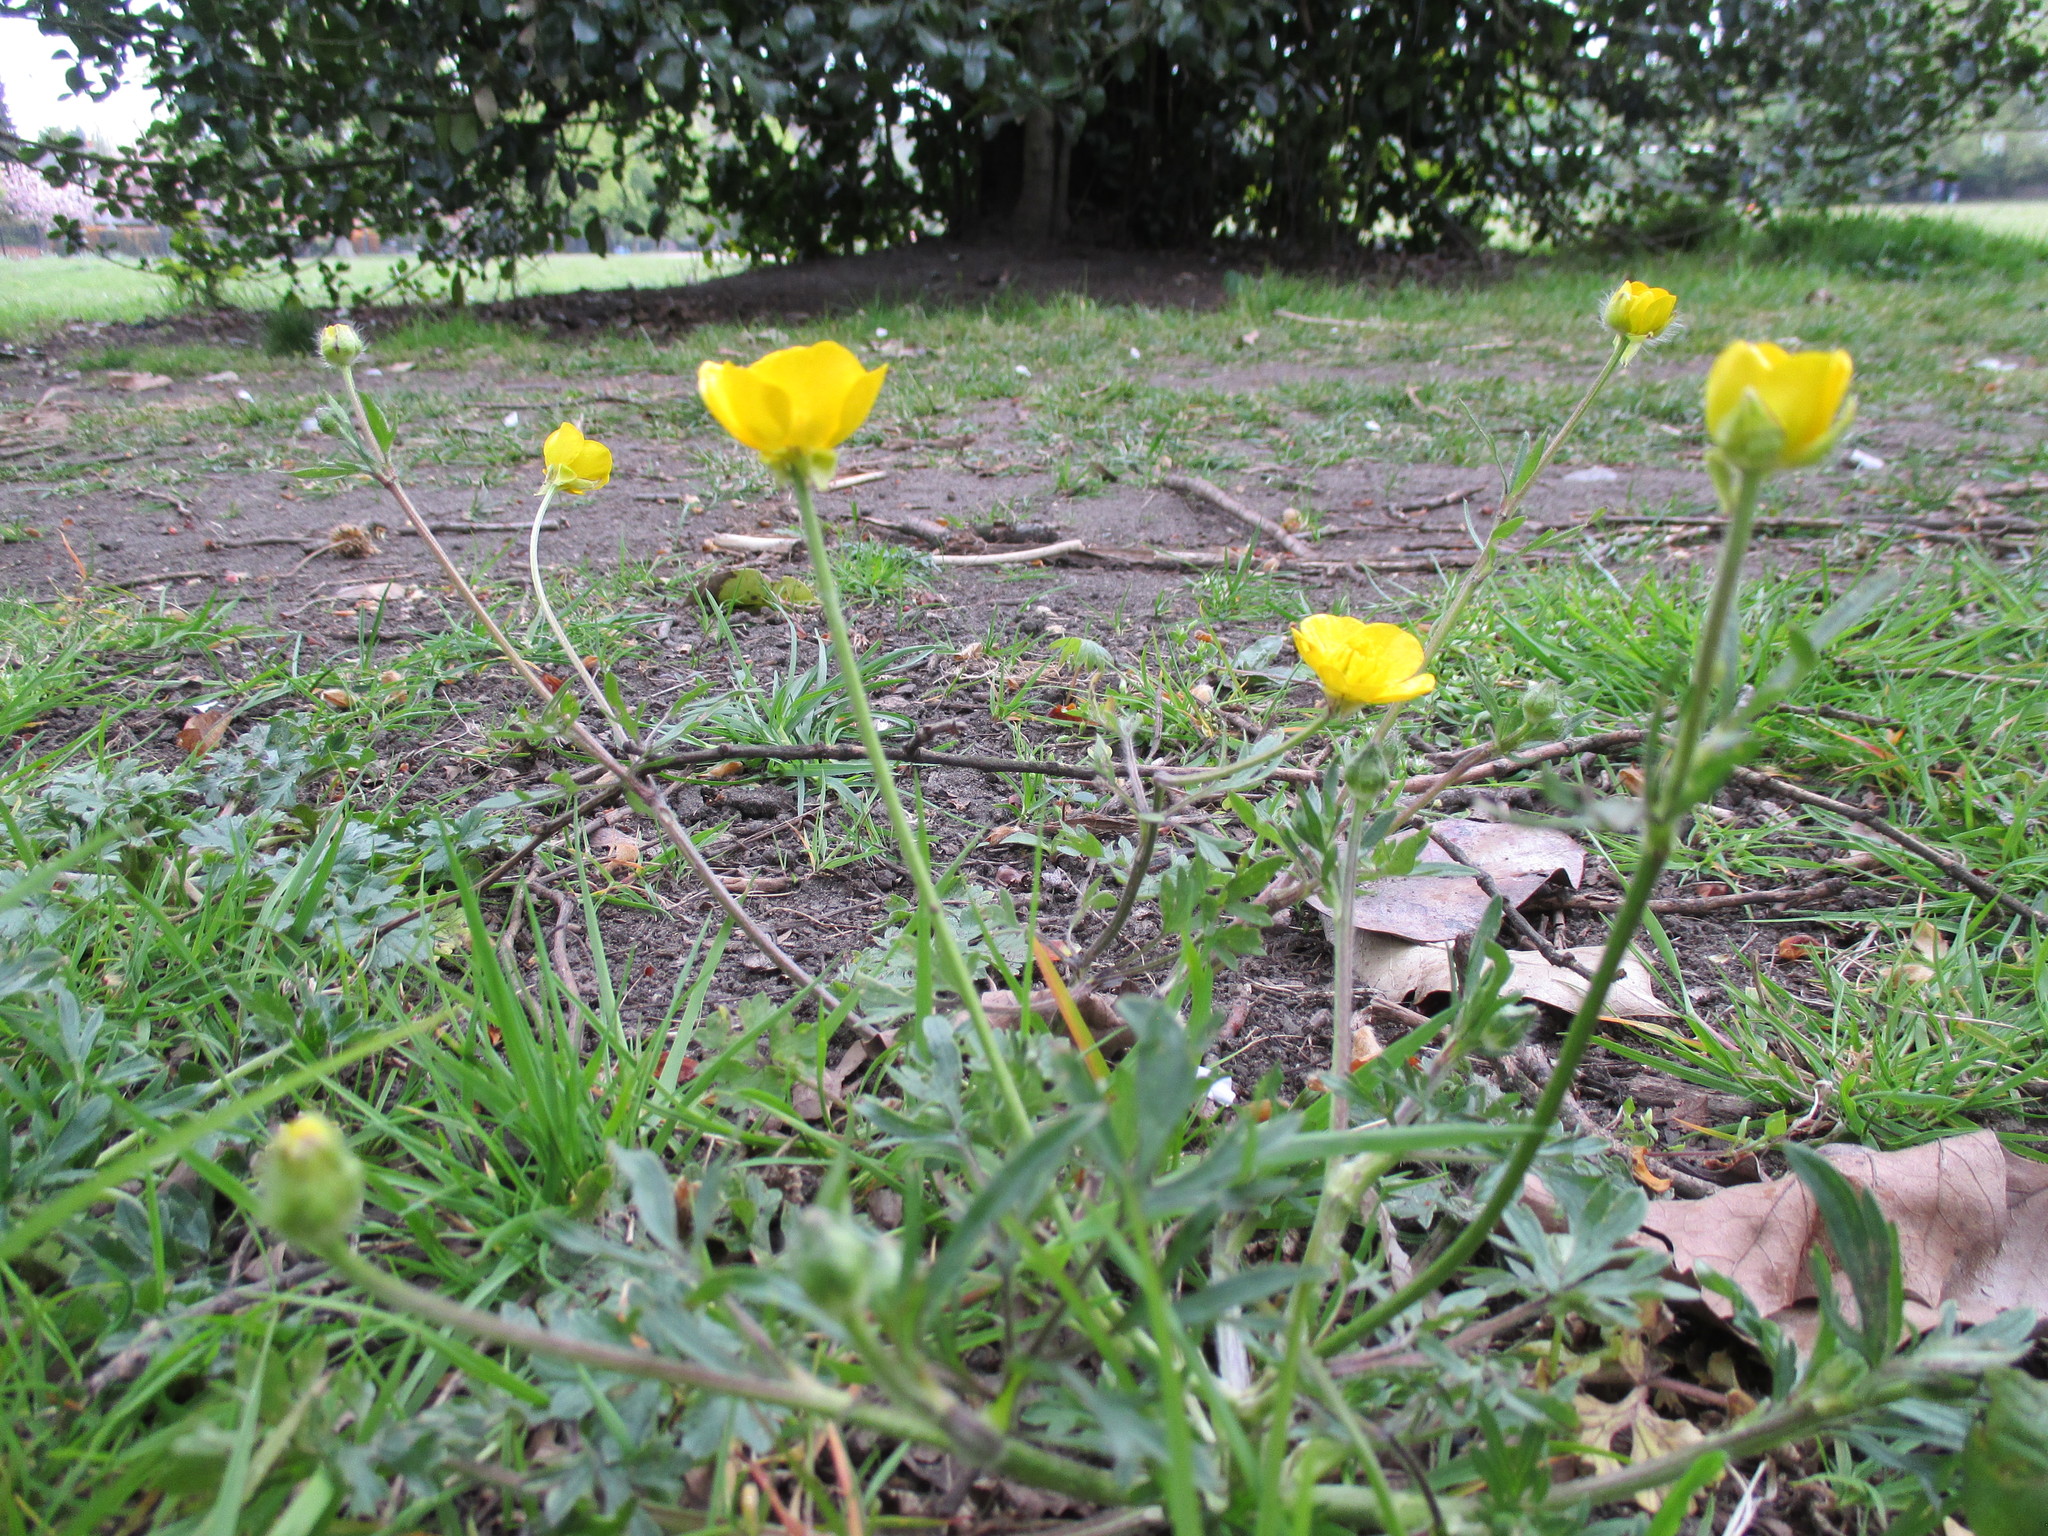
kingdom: Plantae
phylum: Tracheophyta
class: Magnoliopsida
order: Ranunculales
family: Ranunculaceae
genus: Ranunculus
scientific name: Ranunculus bulbosus
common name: Bulbous buttercup
